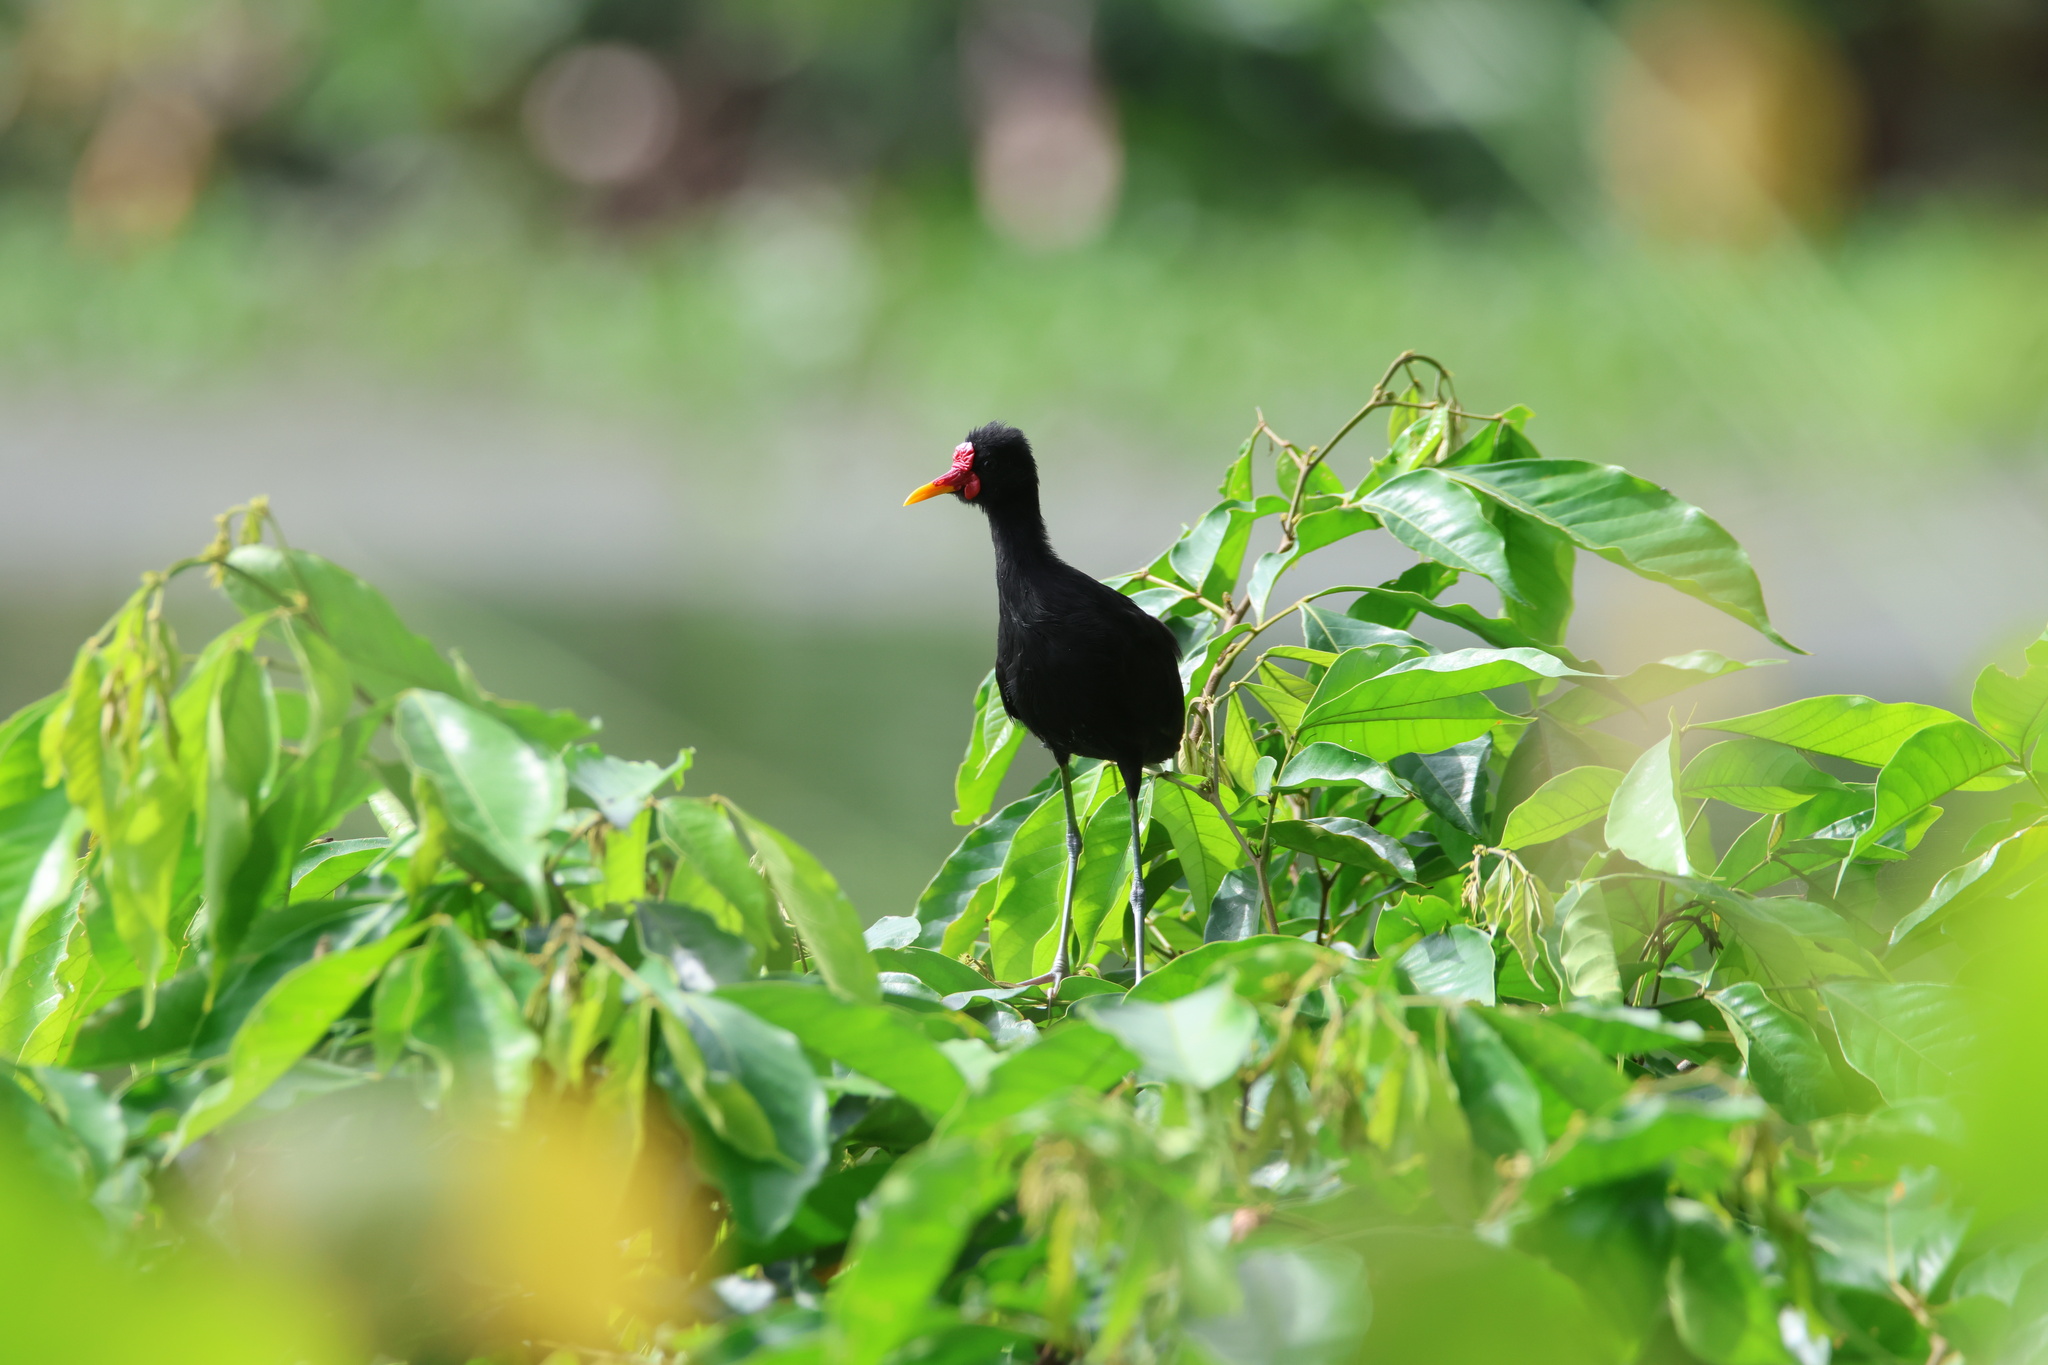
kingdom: Animalia
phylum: Chordata
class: Aves
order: Charadriiformes
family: Jacanidae
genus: Jacana
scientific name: Jacana jacana
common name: Wattled jacana
